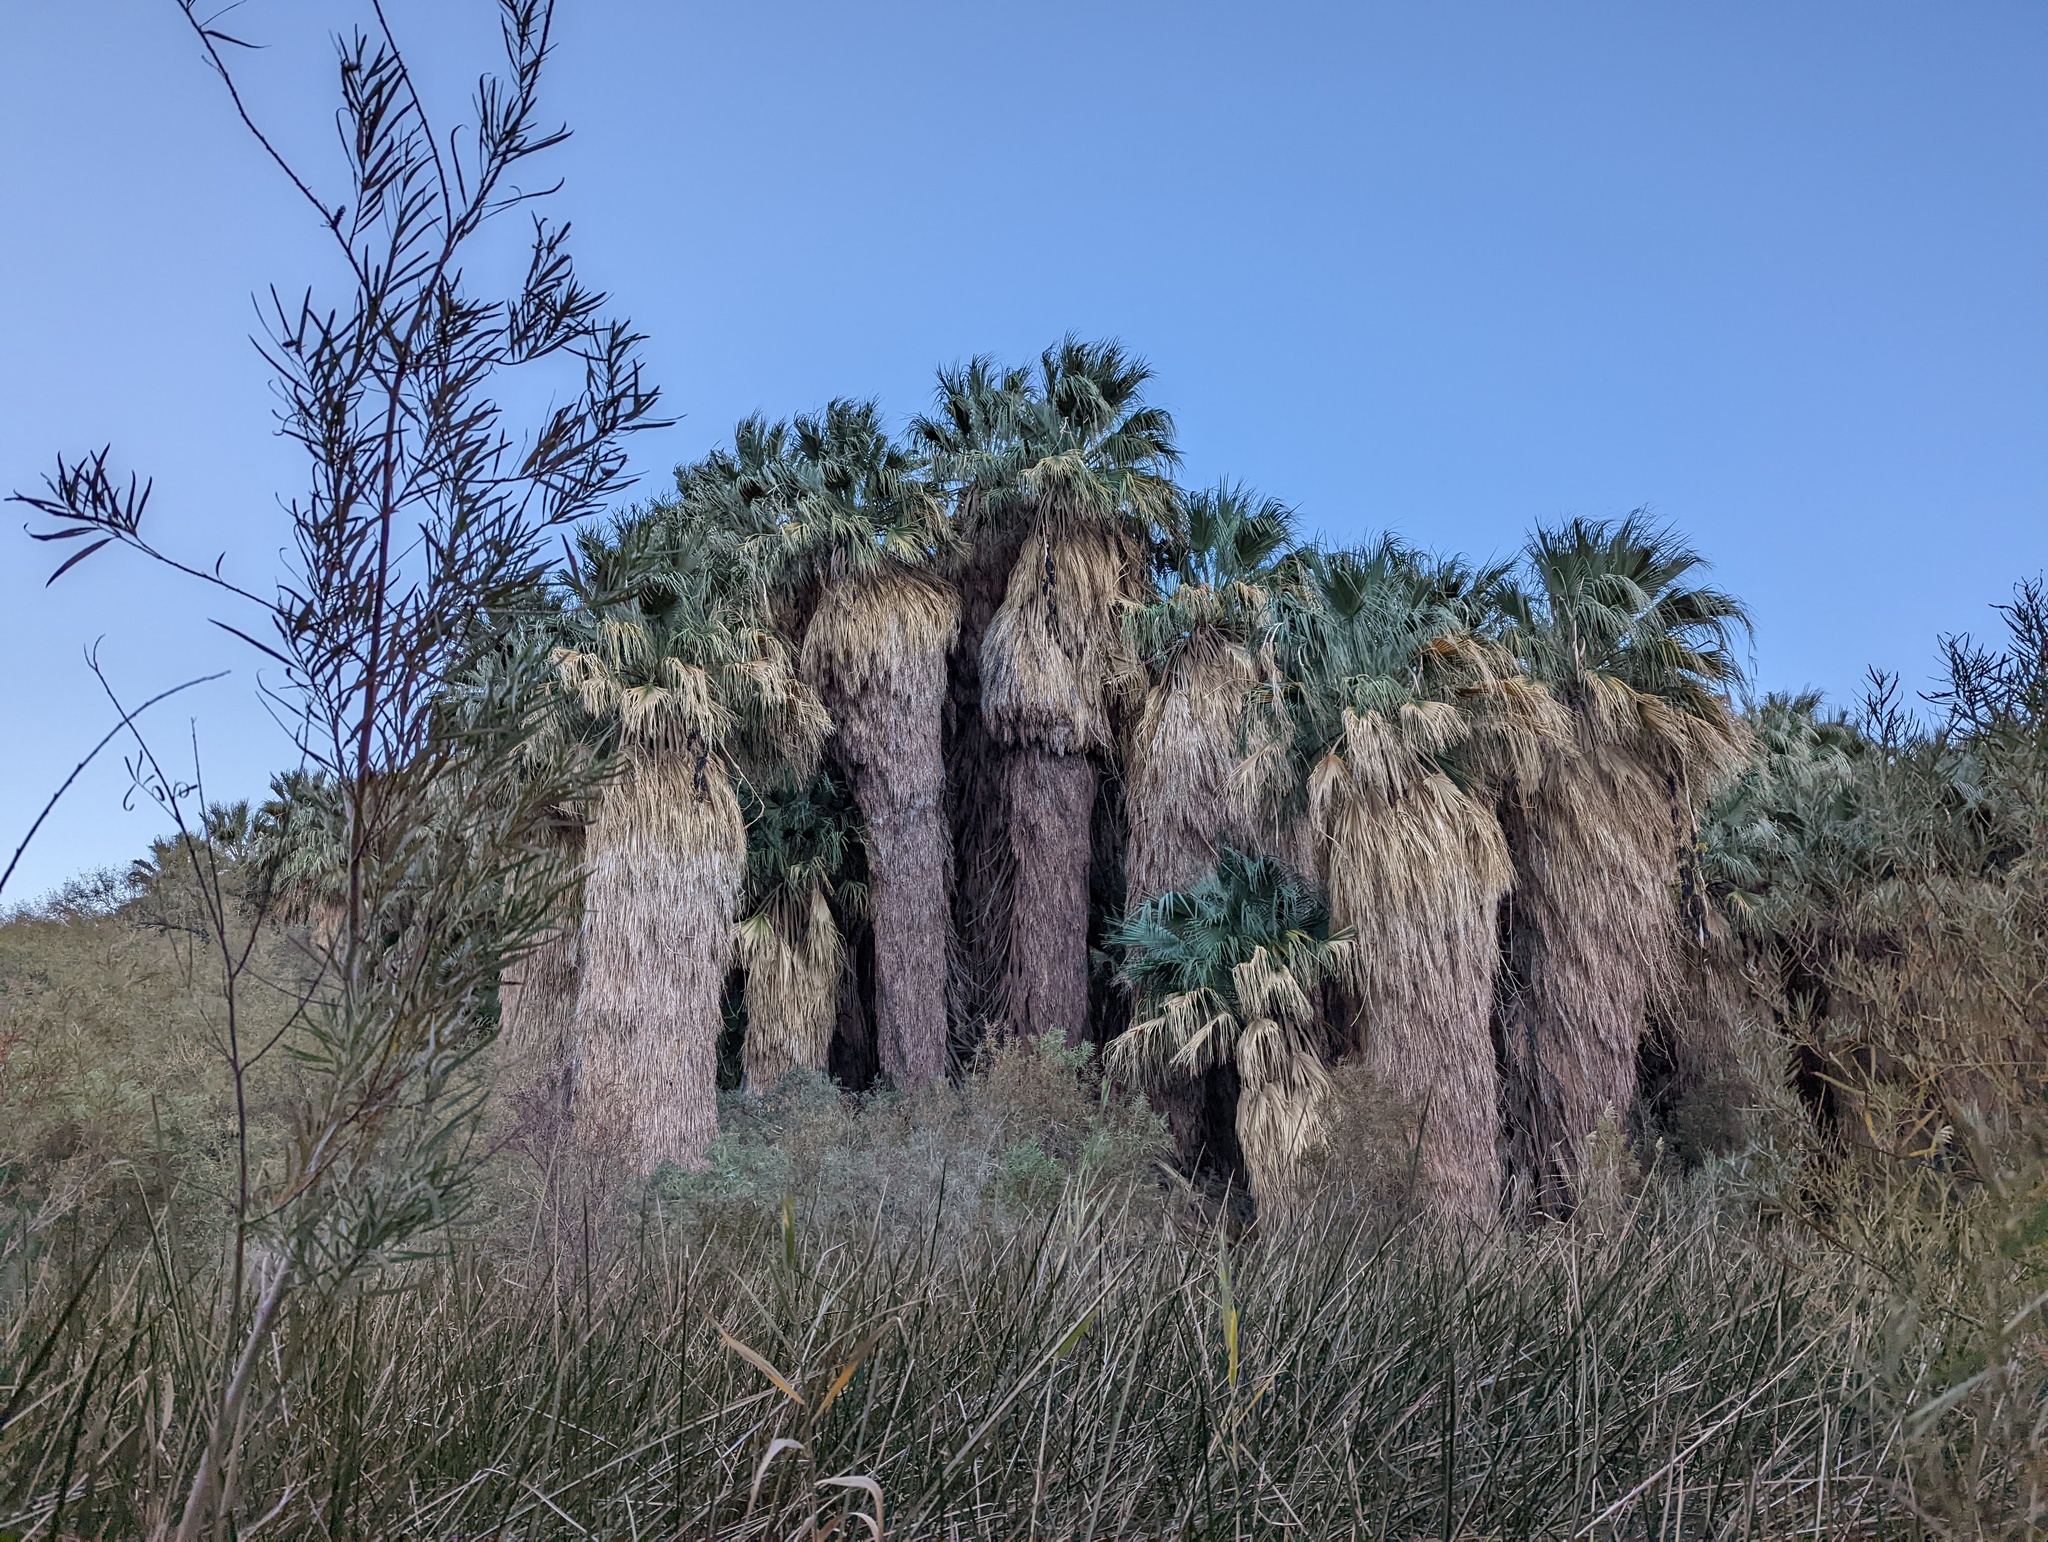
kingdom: Plantae
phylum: Tracheophyta
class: Liliopsida
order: Arecales
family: Arecaceae
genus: Washingtonia
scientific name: Washingtonia filifera
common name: California fan palm
